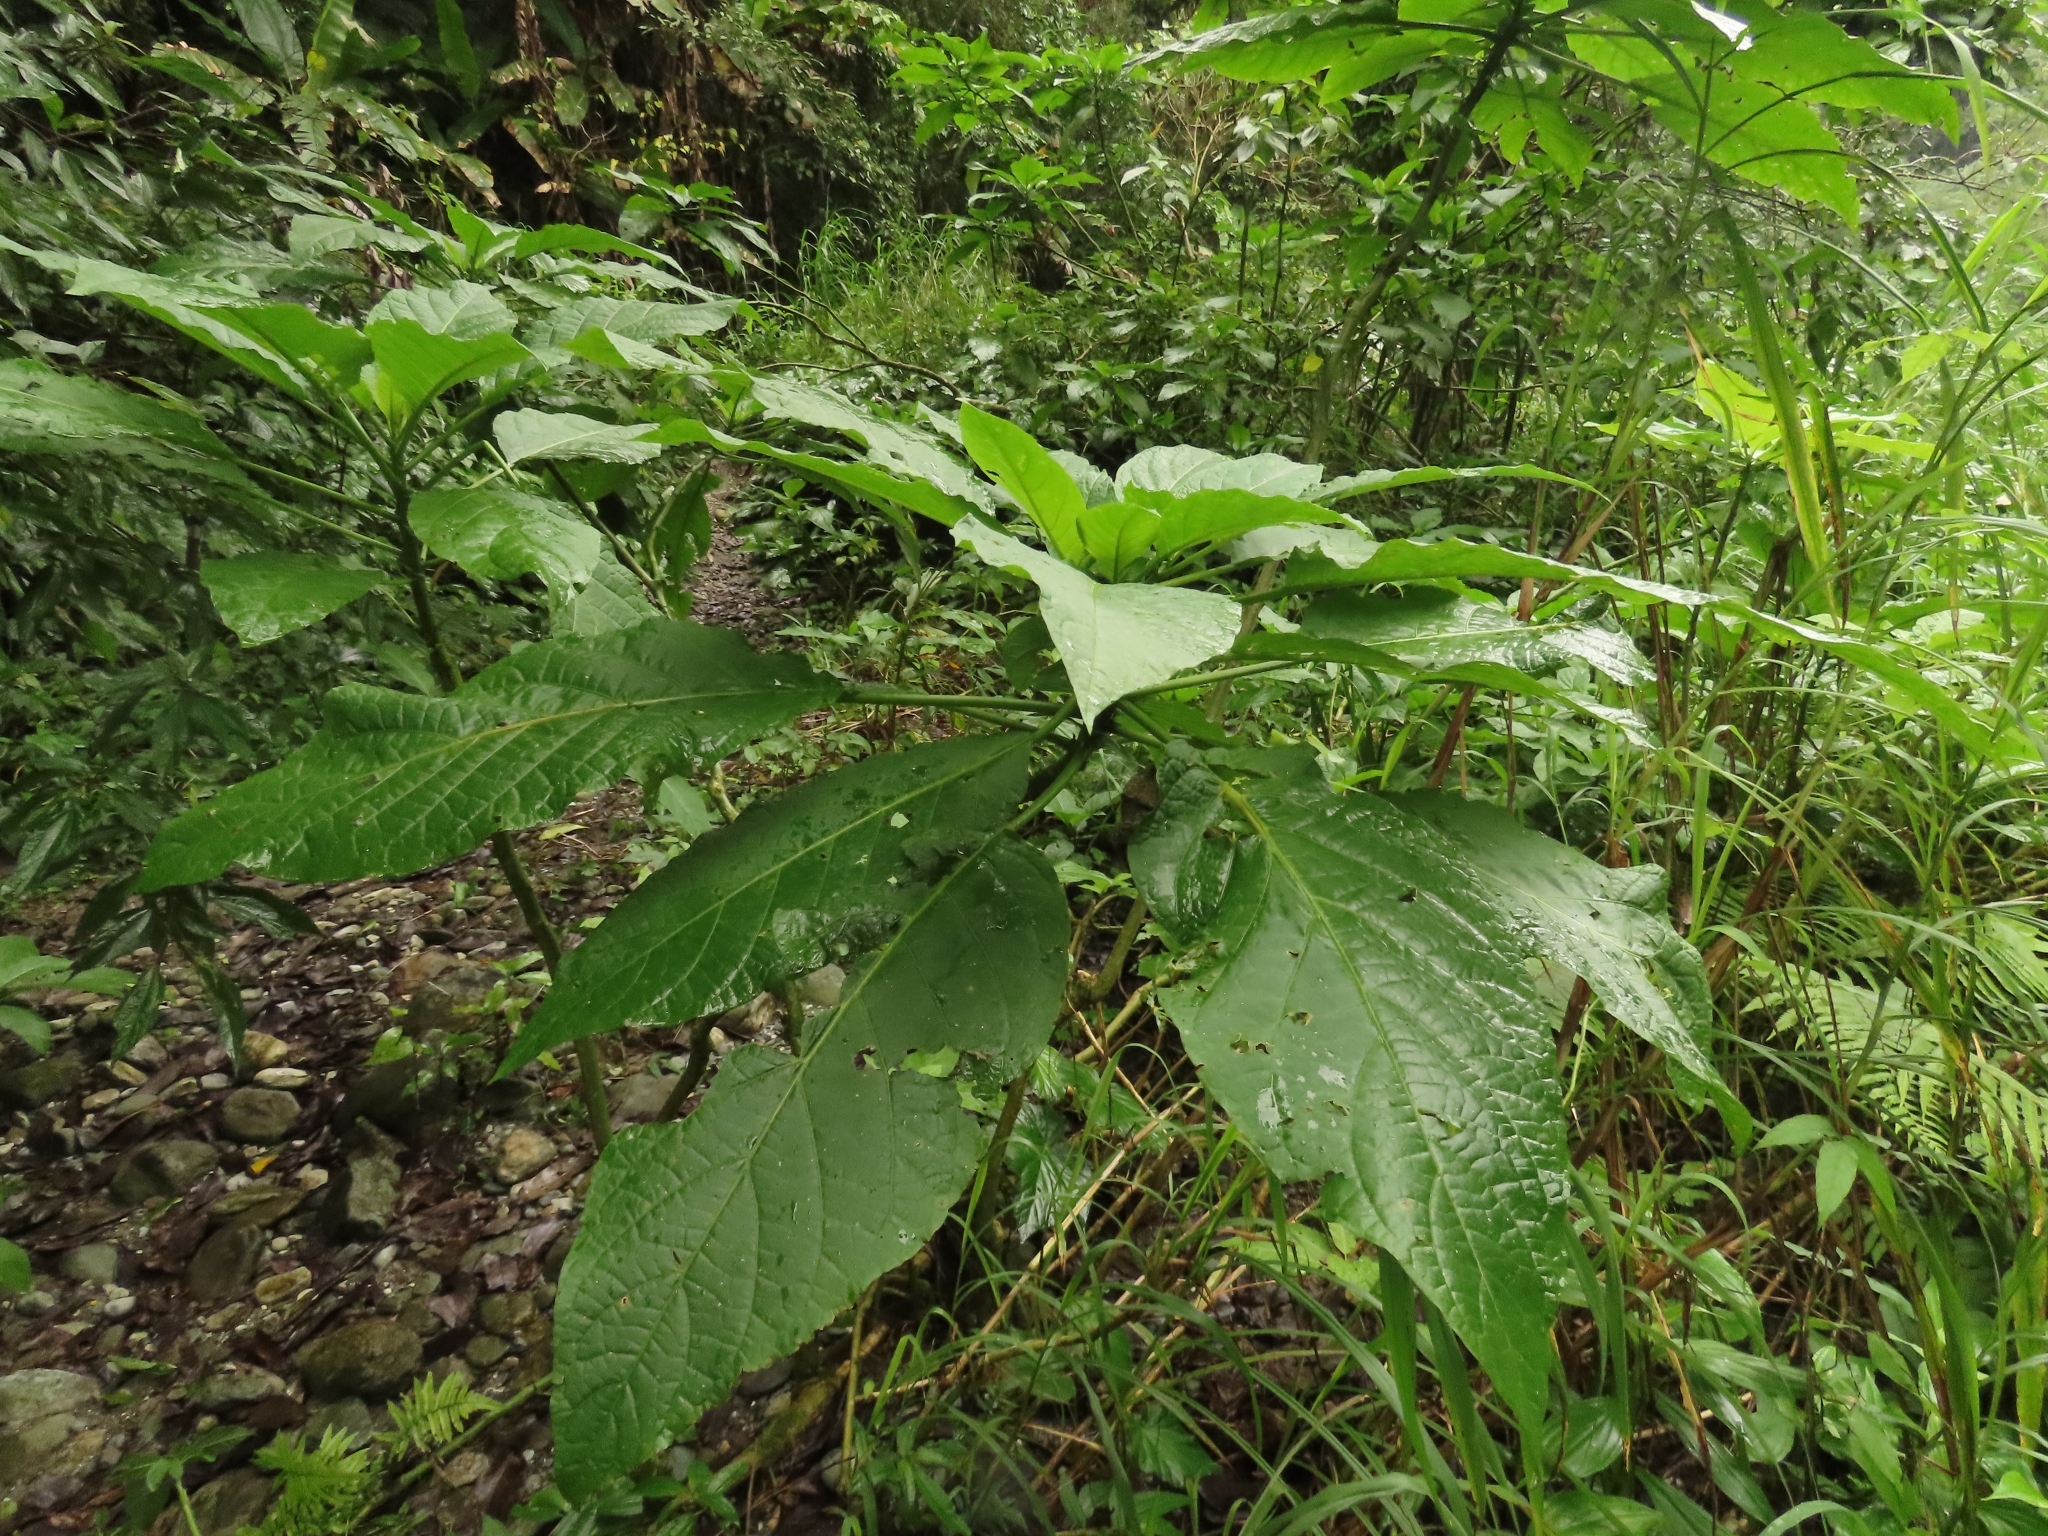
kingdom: Plantae
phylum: Tracheophyta
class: Magnoliopsida
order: Solanales
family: Solanaceae
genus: Brugmansia
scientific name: Brugmansia suaveolens
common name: Angel's tears
